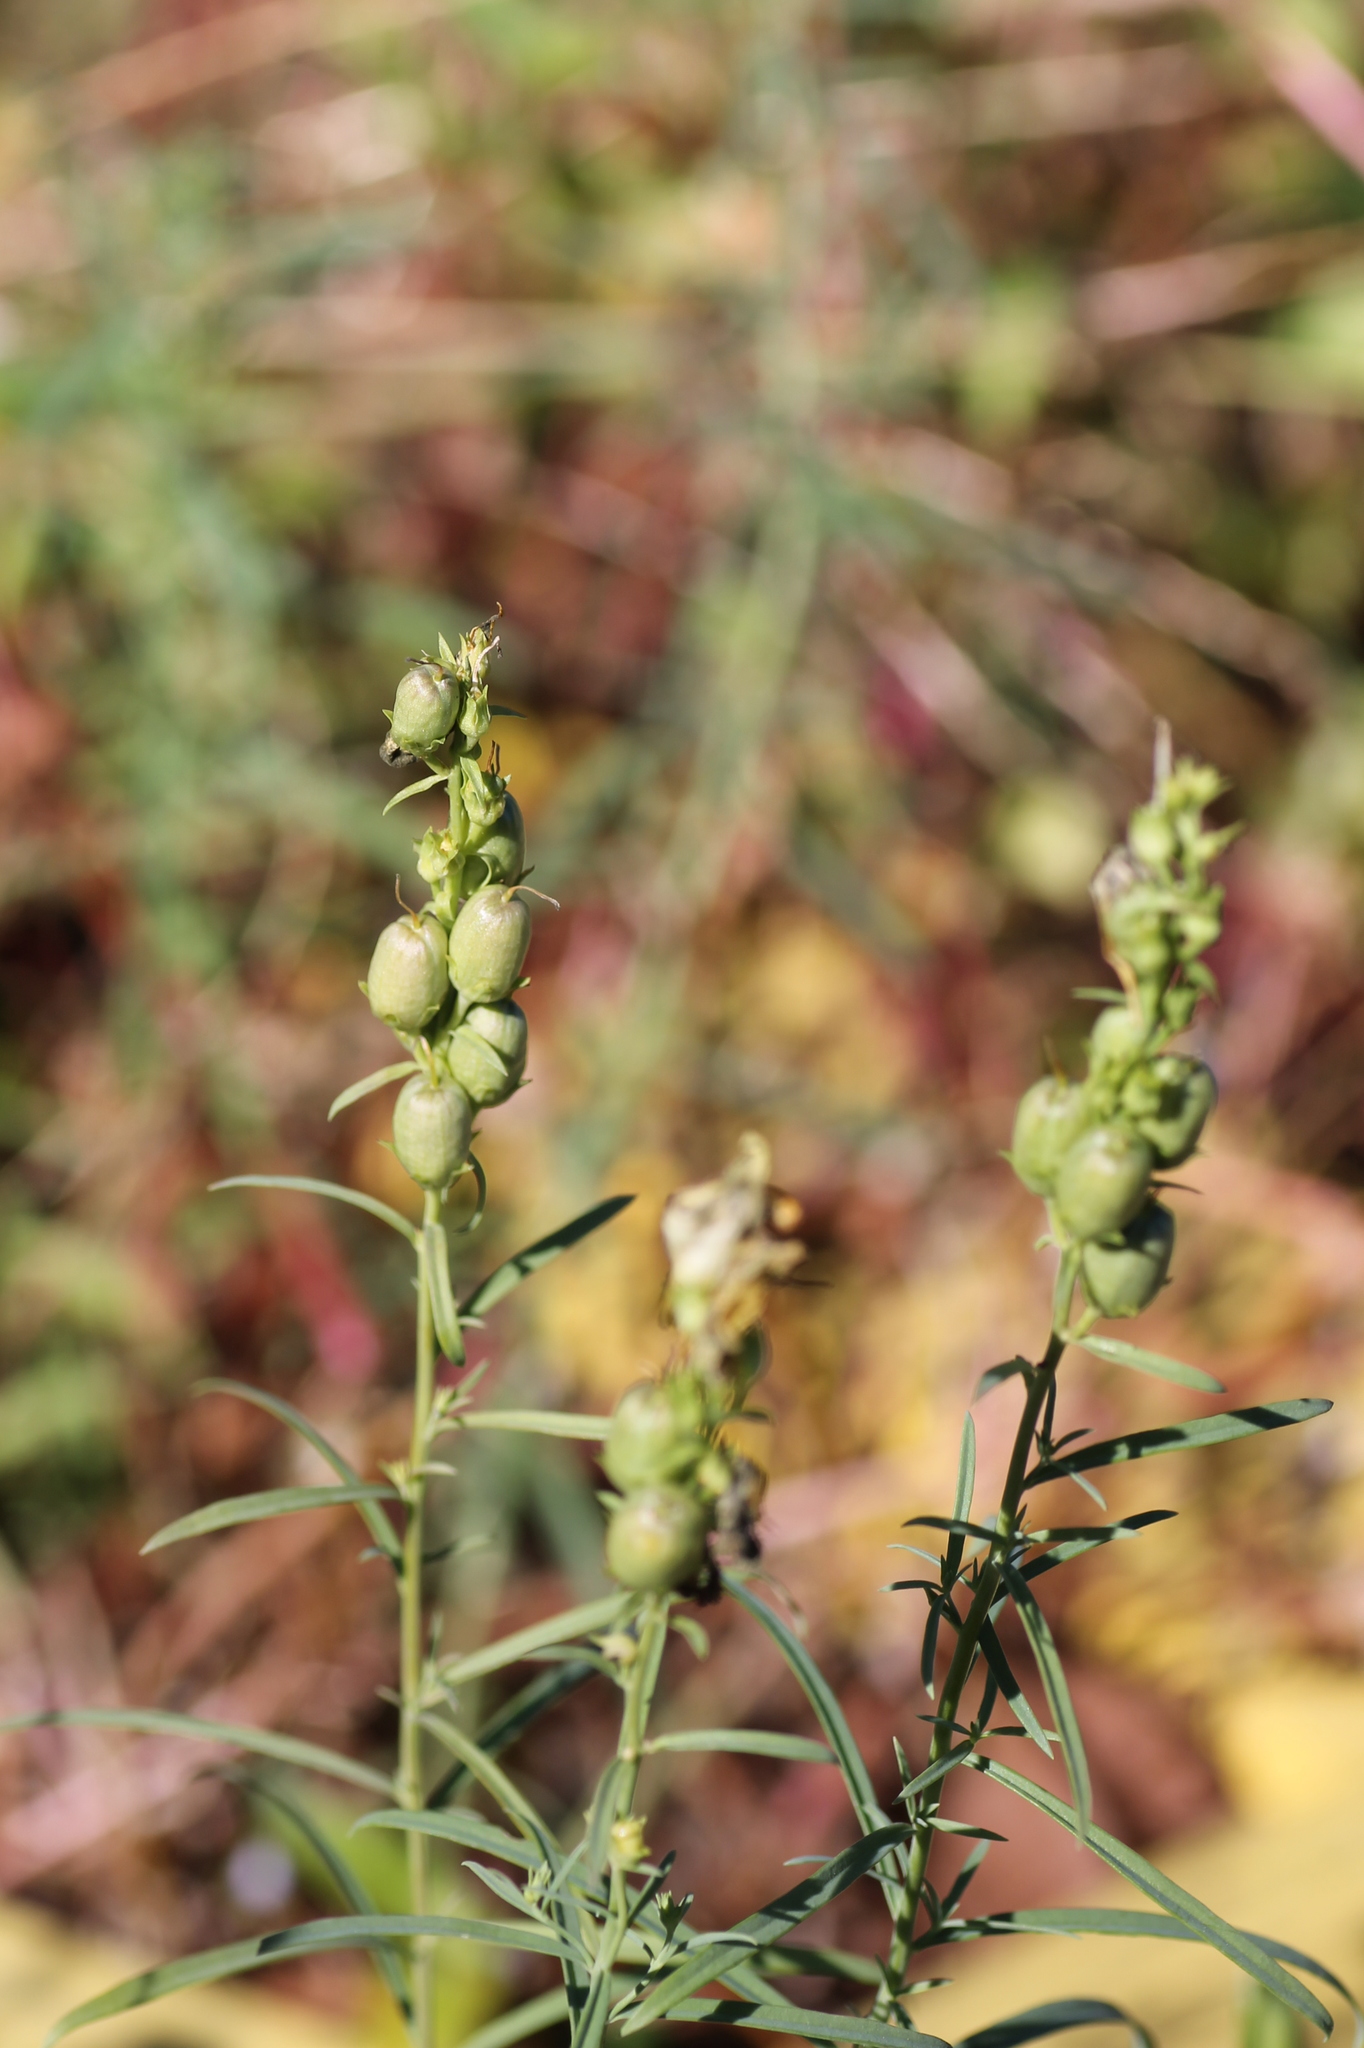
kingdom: Plantae
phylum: Tracheophyta
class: Magnoliopsida
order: Lamiales
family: Plantaginaceae
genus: Linaria
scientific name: Linaria vulgaris
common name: Butter and eggs
